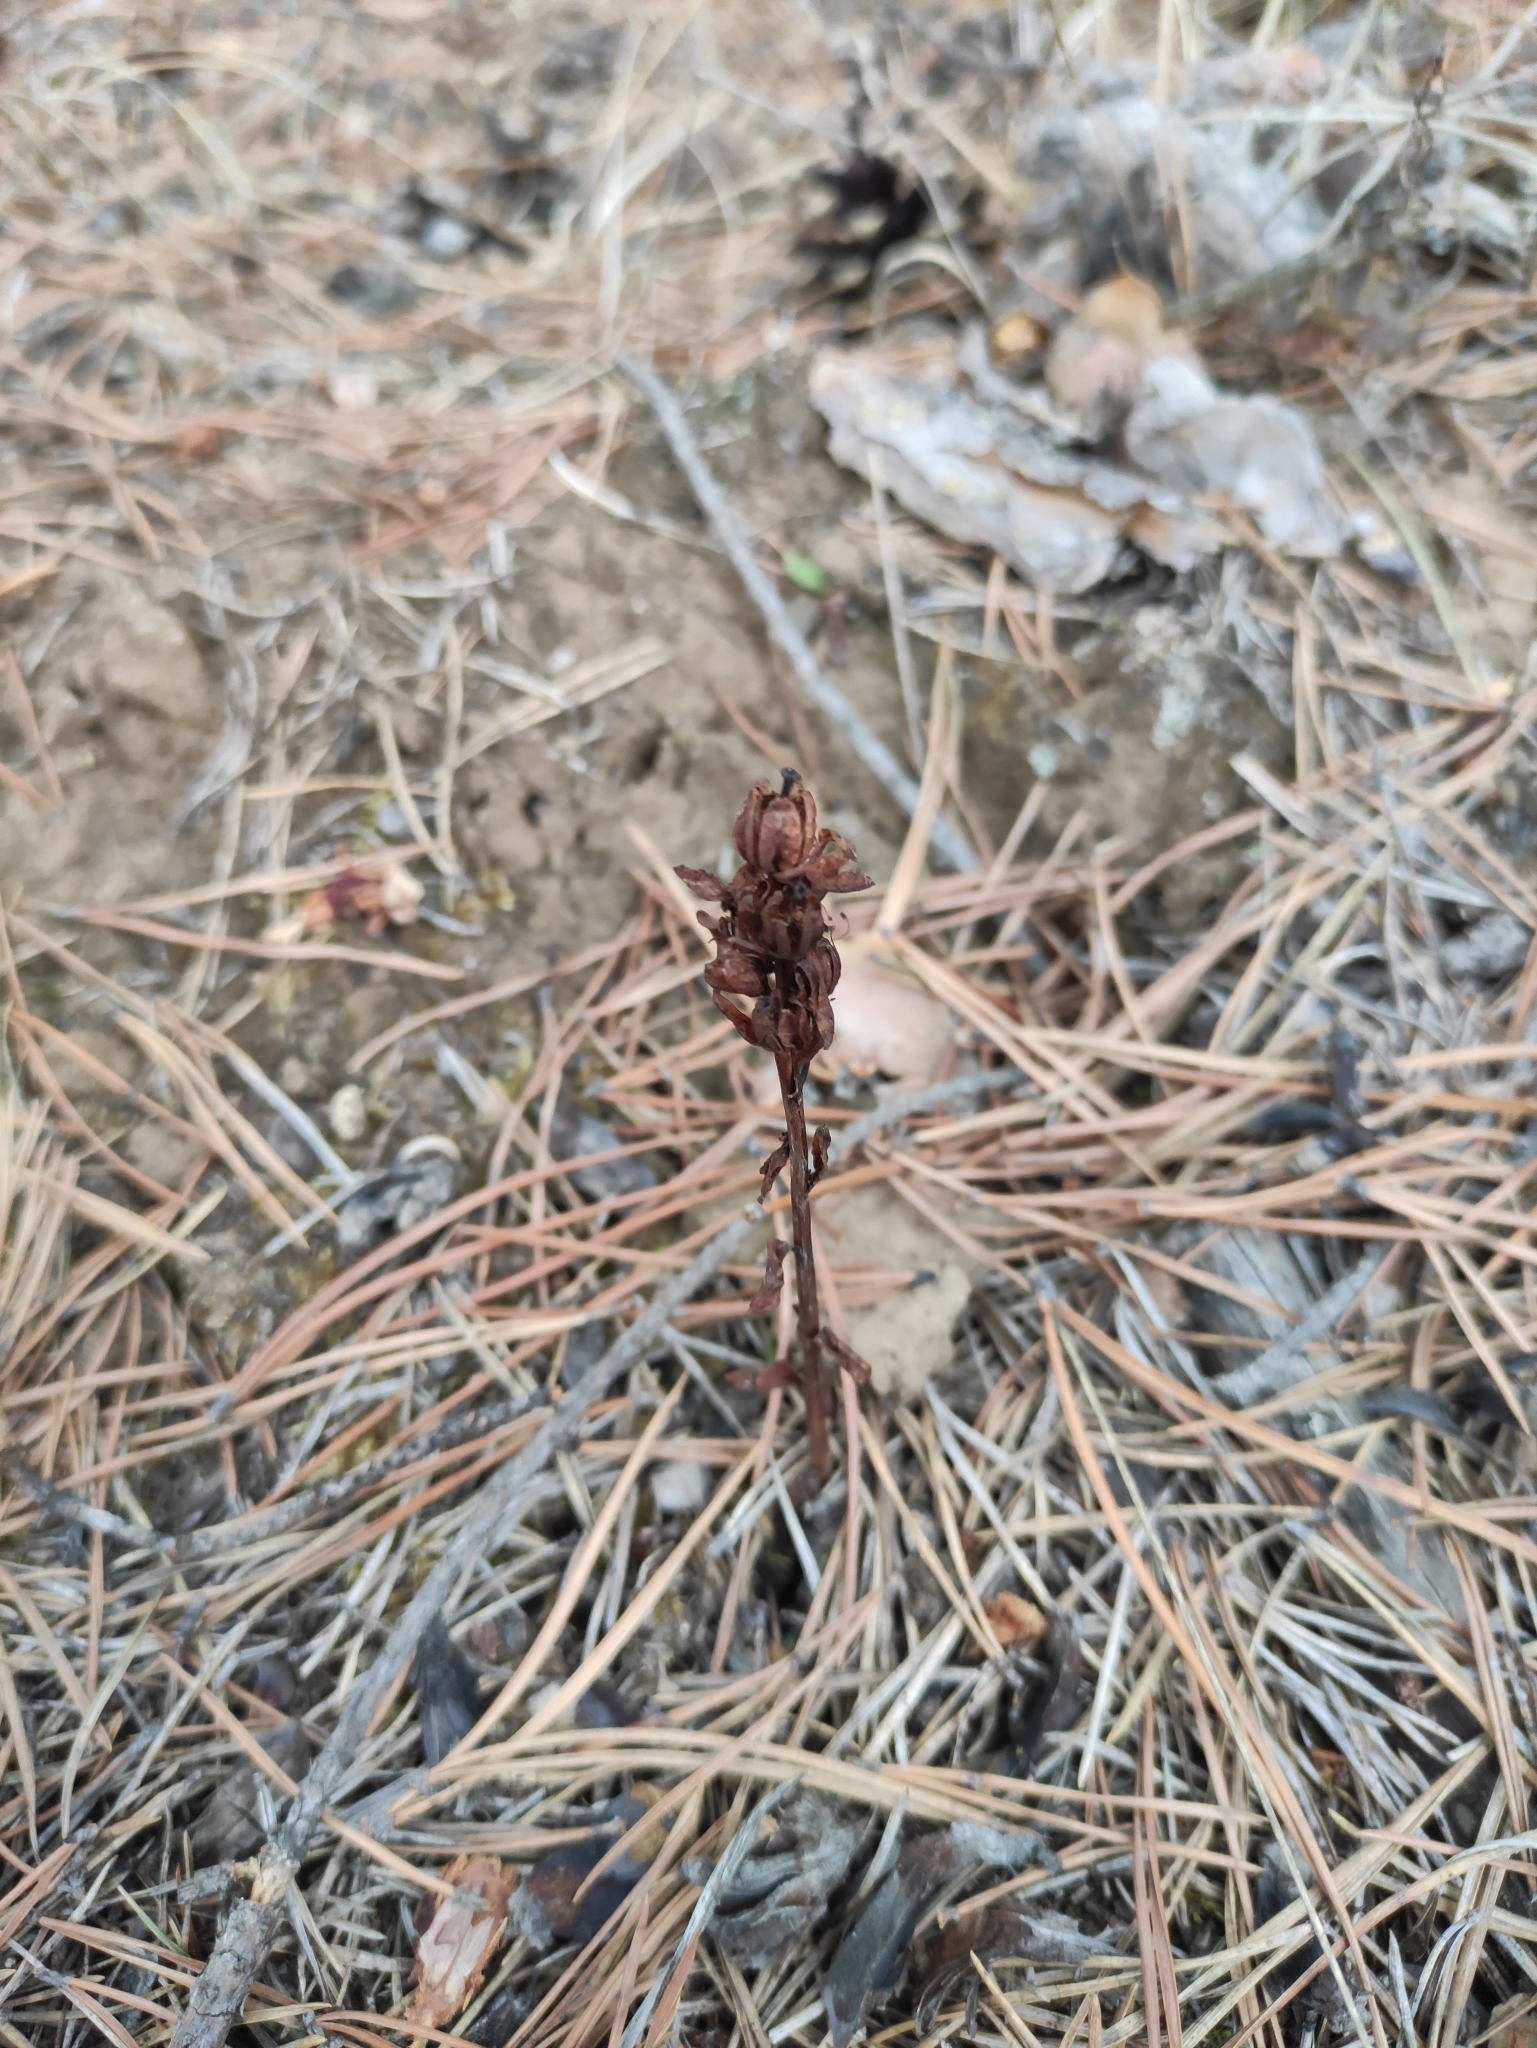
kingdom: Plantae
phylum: Tracheophyta
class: Magnoliopsida
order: Ericales
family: Ericaceae
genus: Hypopitys
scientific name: Hypopitys monotropa
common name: Yellow bird's-nest
